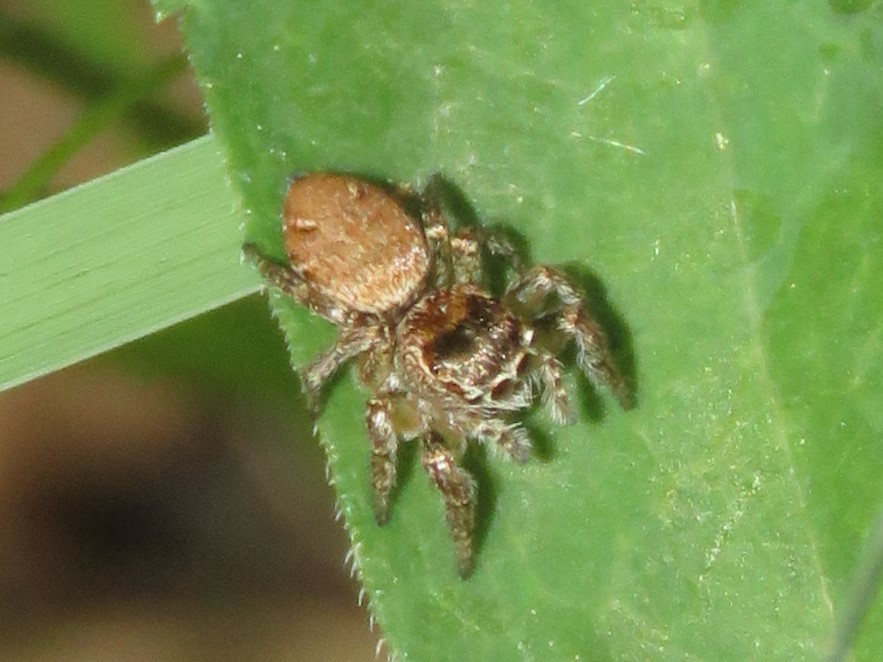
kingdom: Animalia
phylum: Arthropoda
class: Arachnida
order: Araneae
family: Salticidae
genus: Evarcha
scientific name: Evarcha hoyi
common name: Hoy's jumping spider
